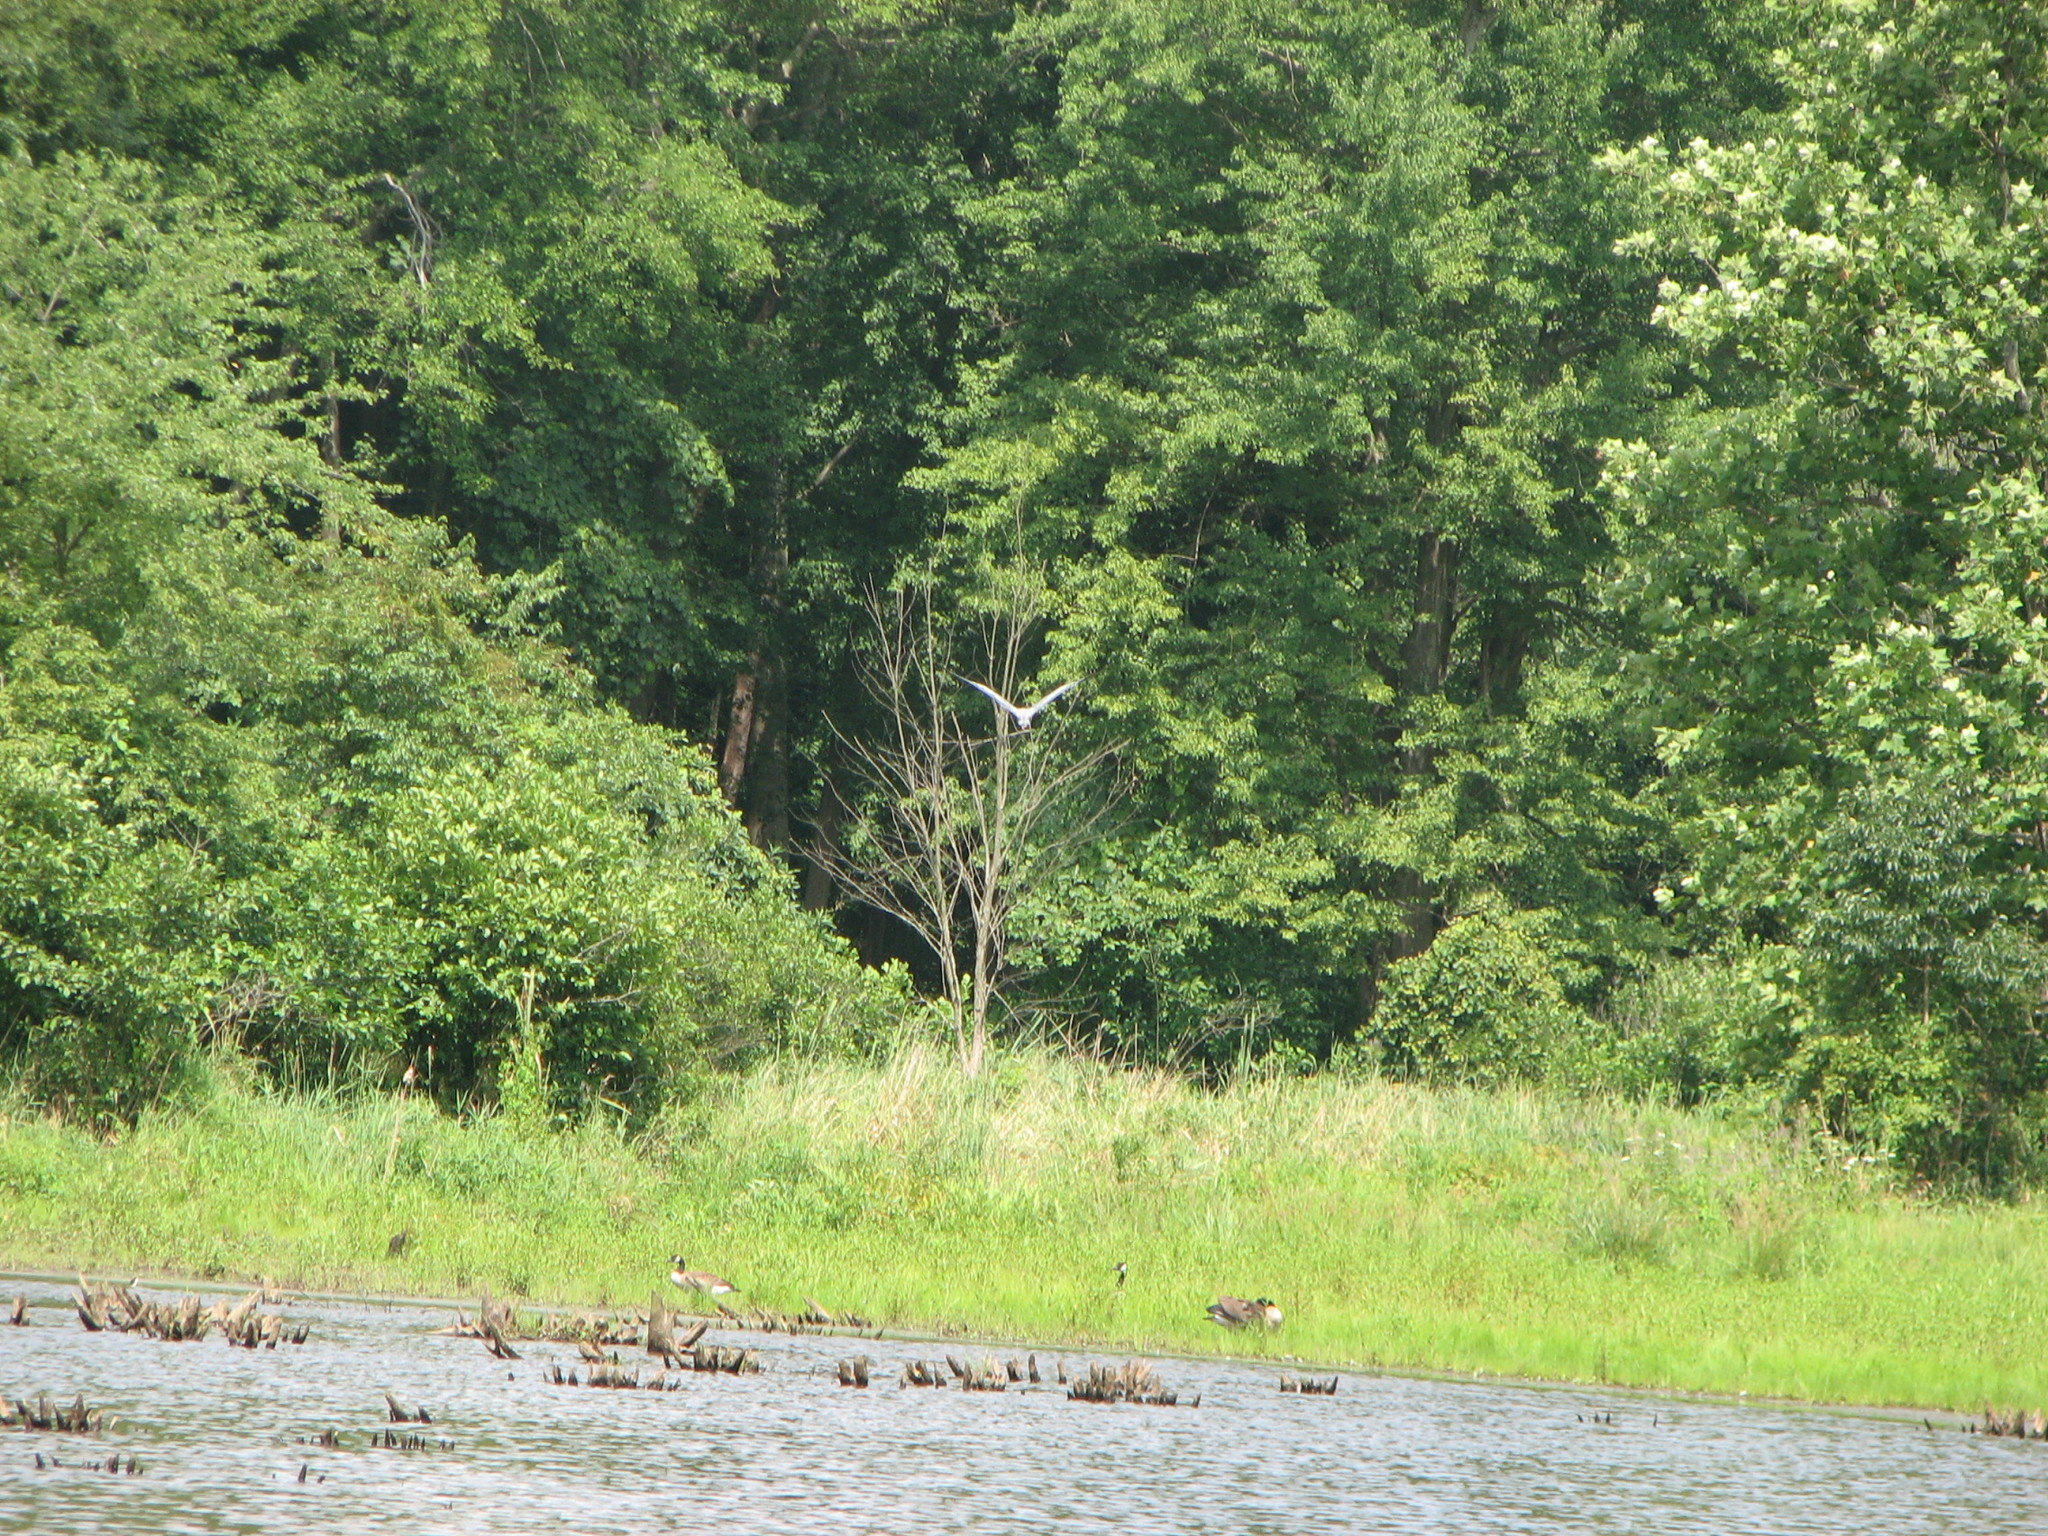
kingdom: Animalia
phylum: Chordata
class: Aves
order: Pelecaniformes
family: Ardeidae
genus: Ardea
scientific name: Ardea herodias
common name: Great blue heron
